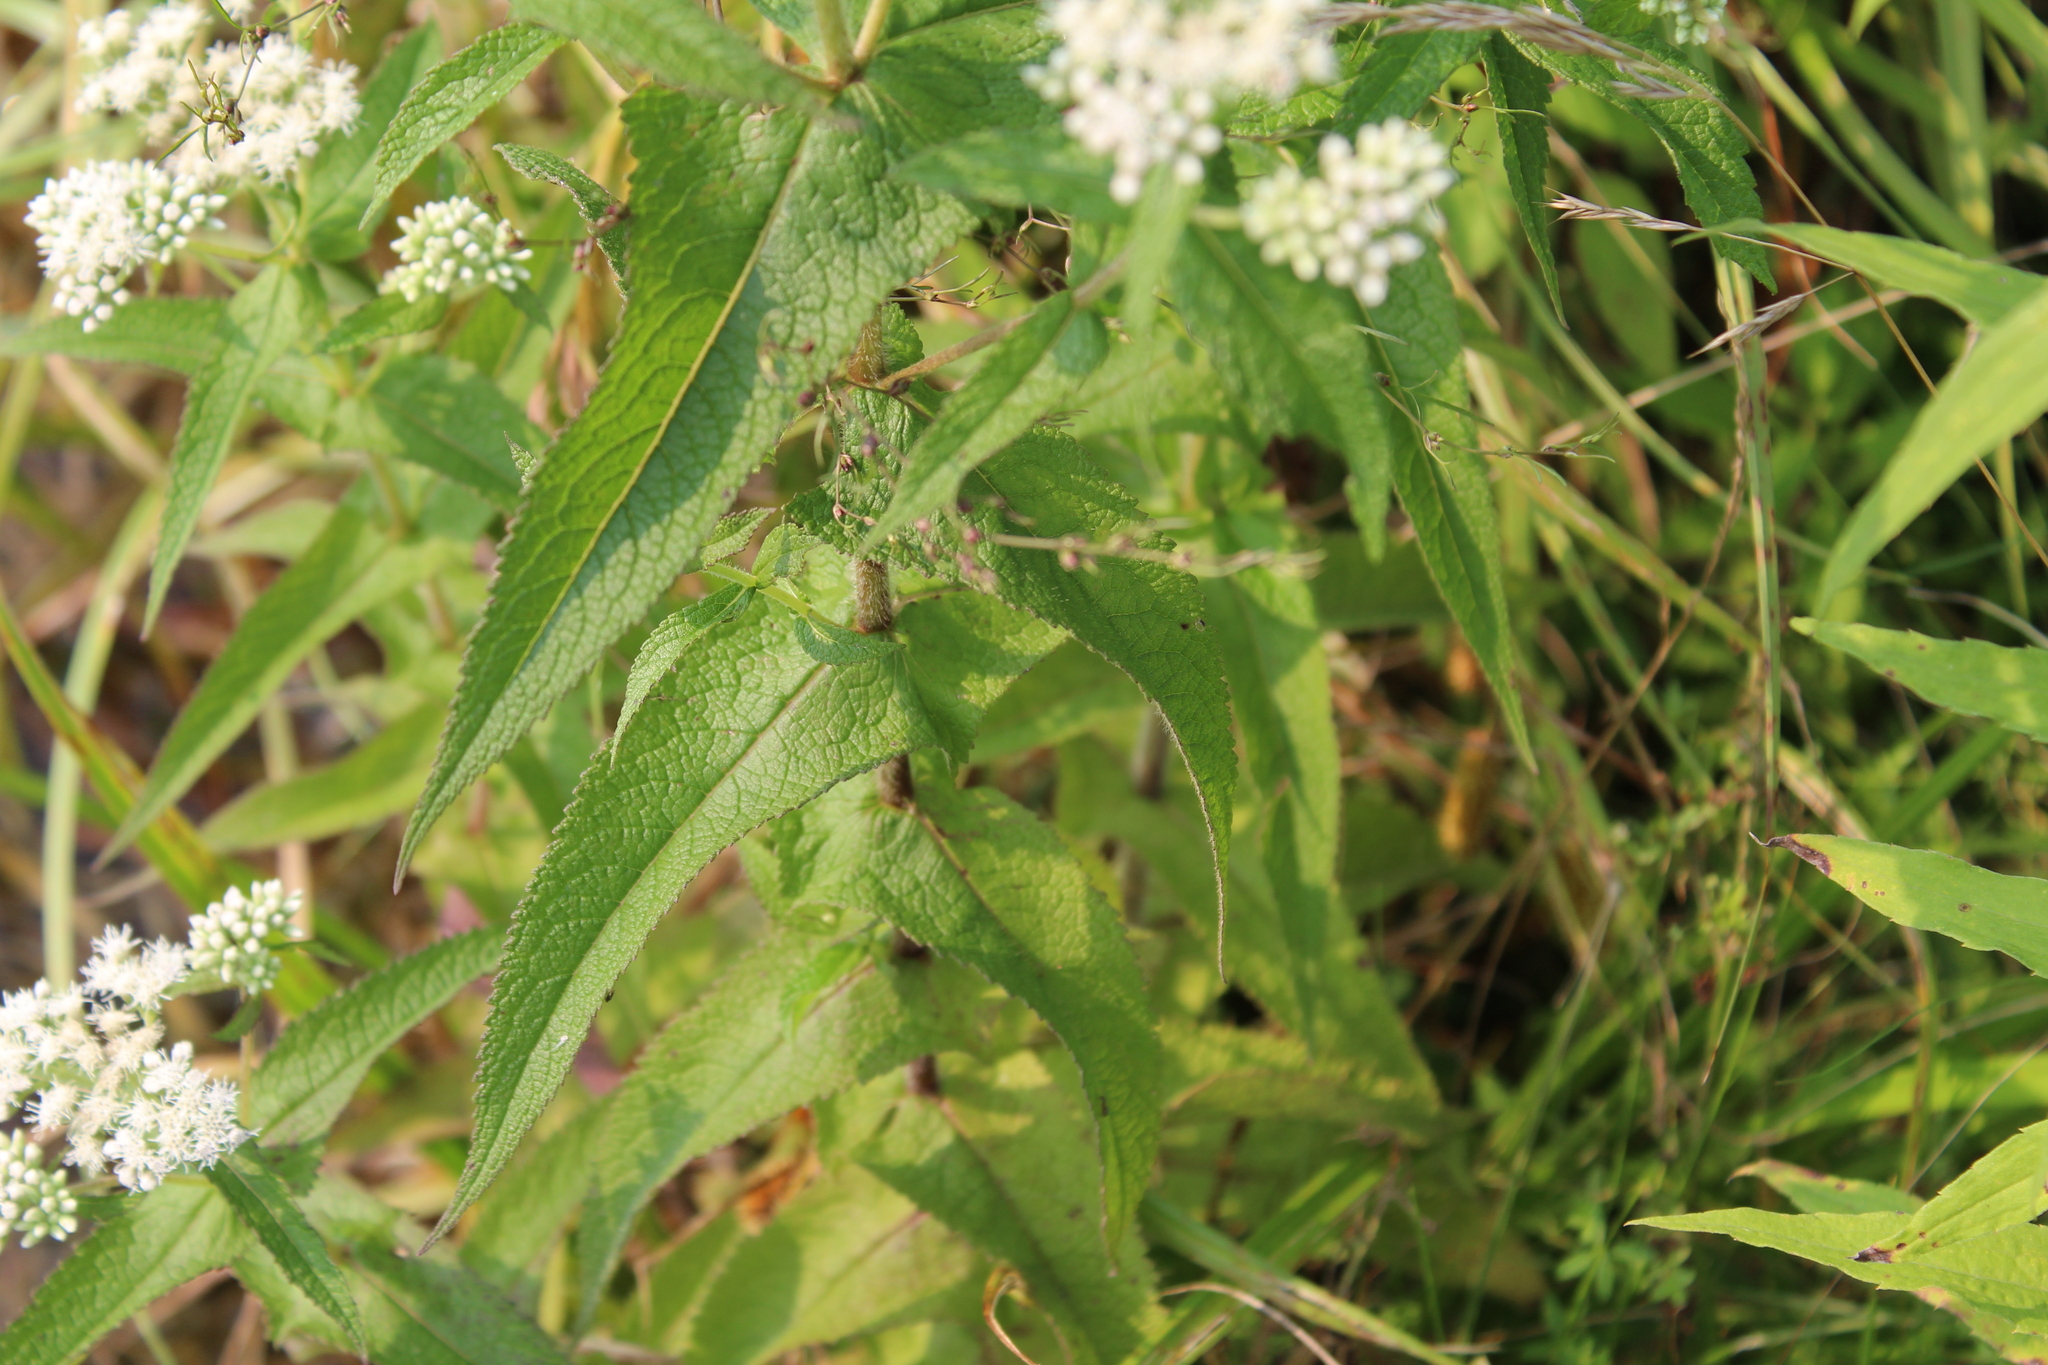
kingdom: Plantae
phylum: Tracheophyta
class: Magnoliopsida
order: Asterales
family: Asteraceae
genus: Eupatorium
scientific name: Eupatorium perfoliatum
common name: Boneset
